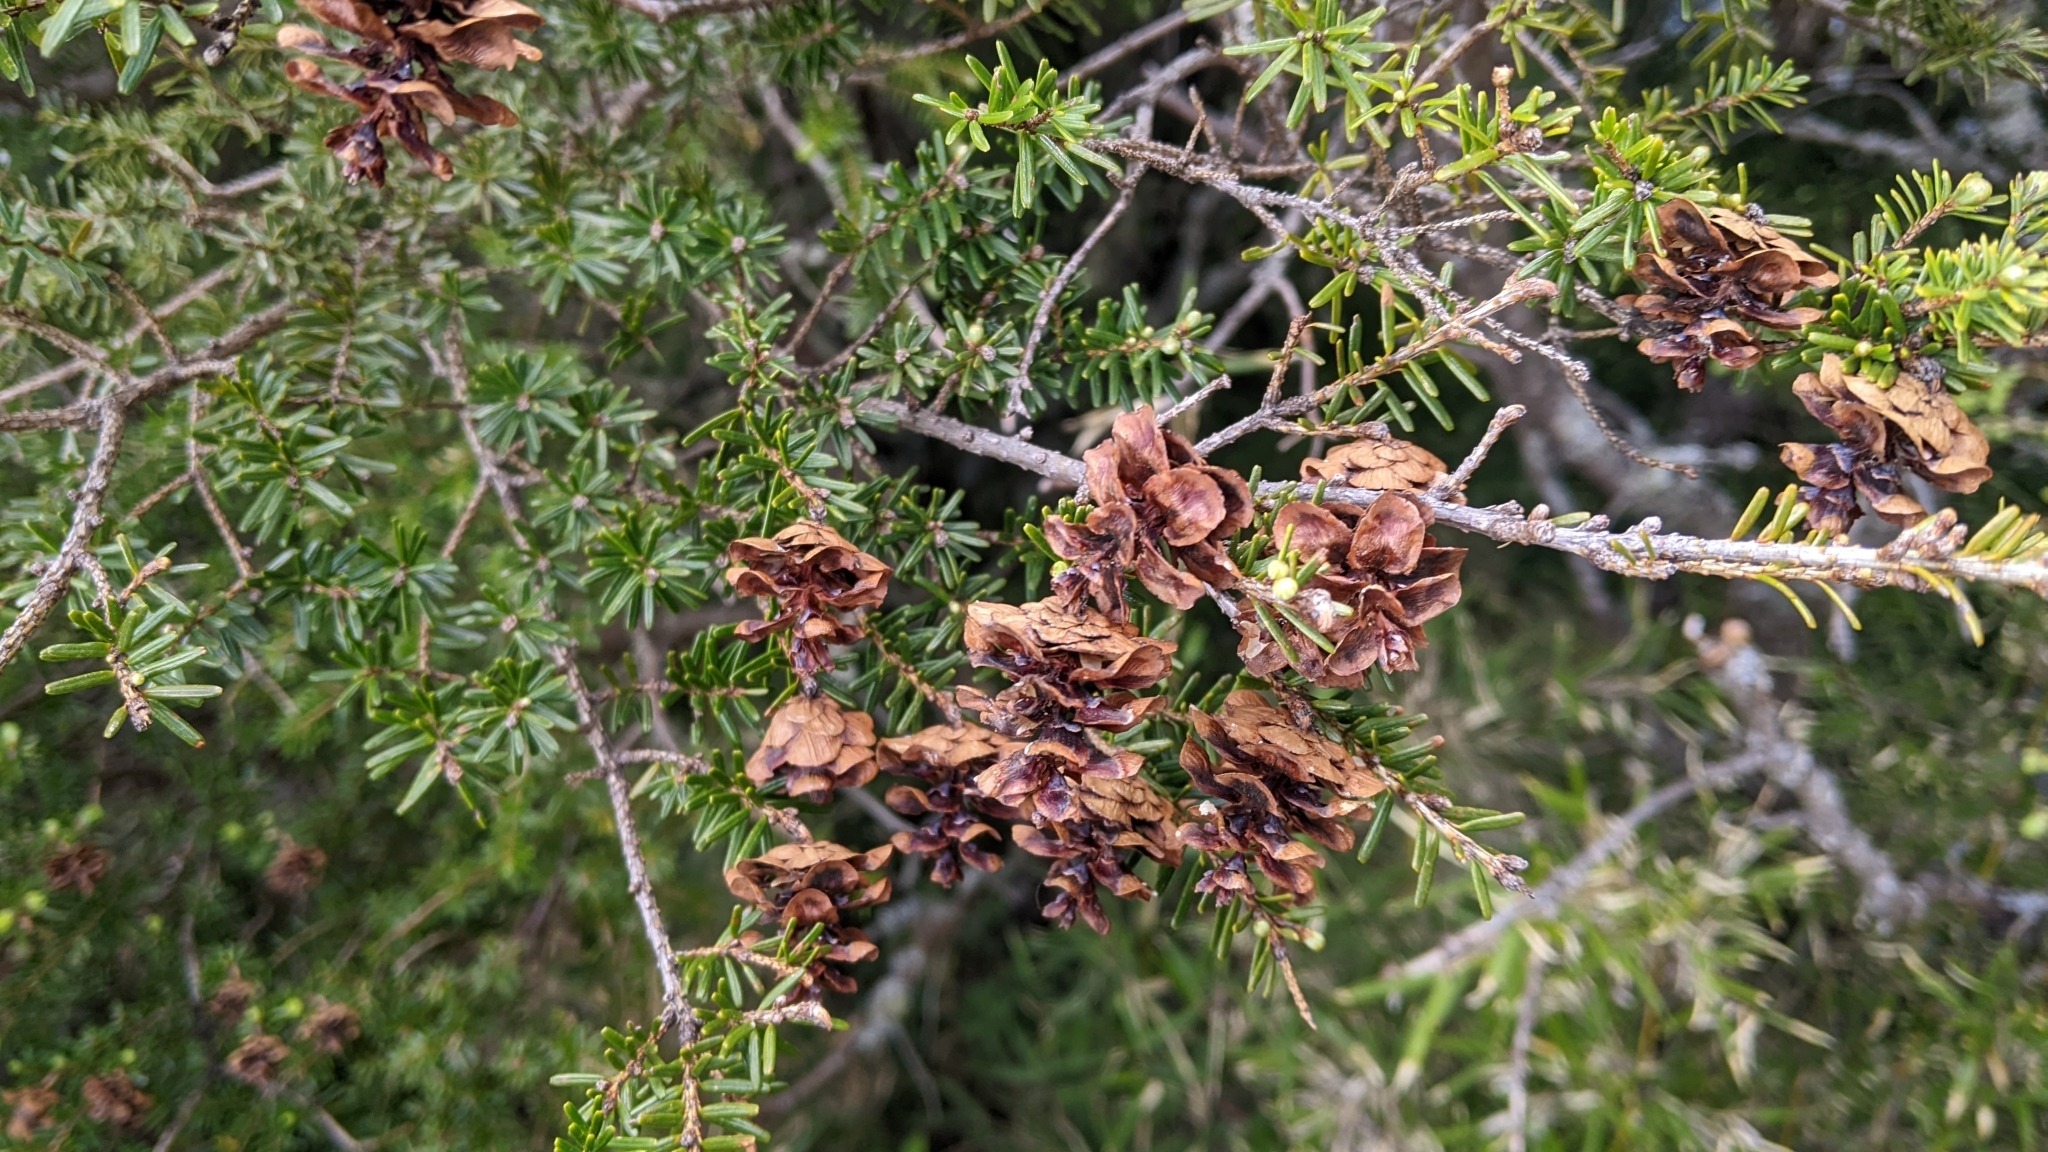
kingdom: Plantae
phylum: Tracheophyta
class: Pinopsida
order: Pinales
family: Pinaceae
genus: Tsuga
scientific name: Tsuga chinensis
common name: Chinese hemlock
